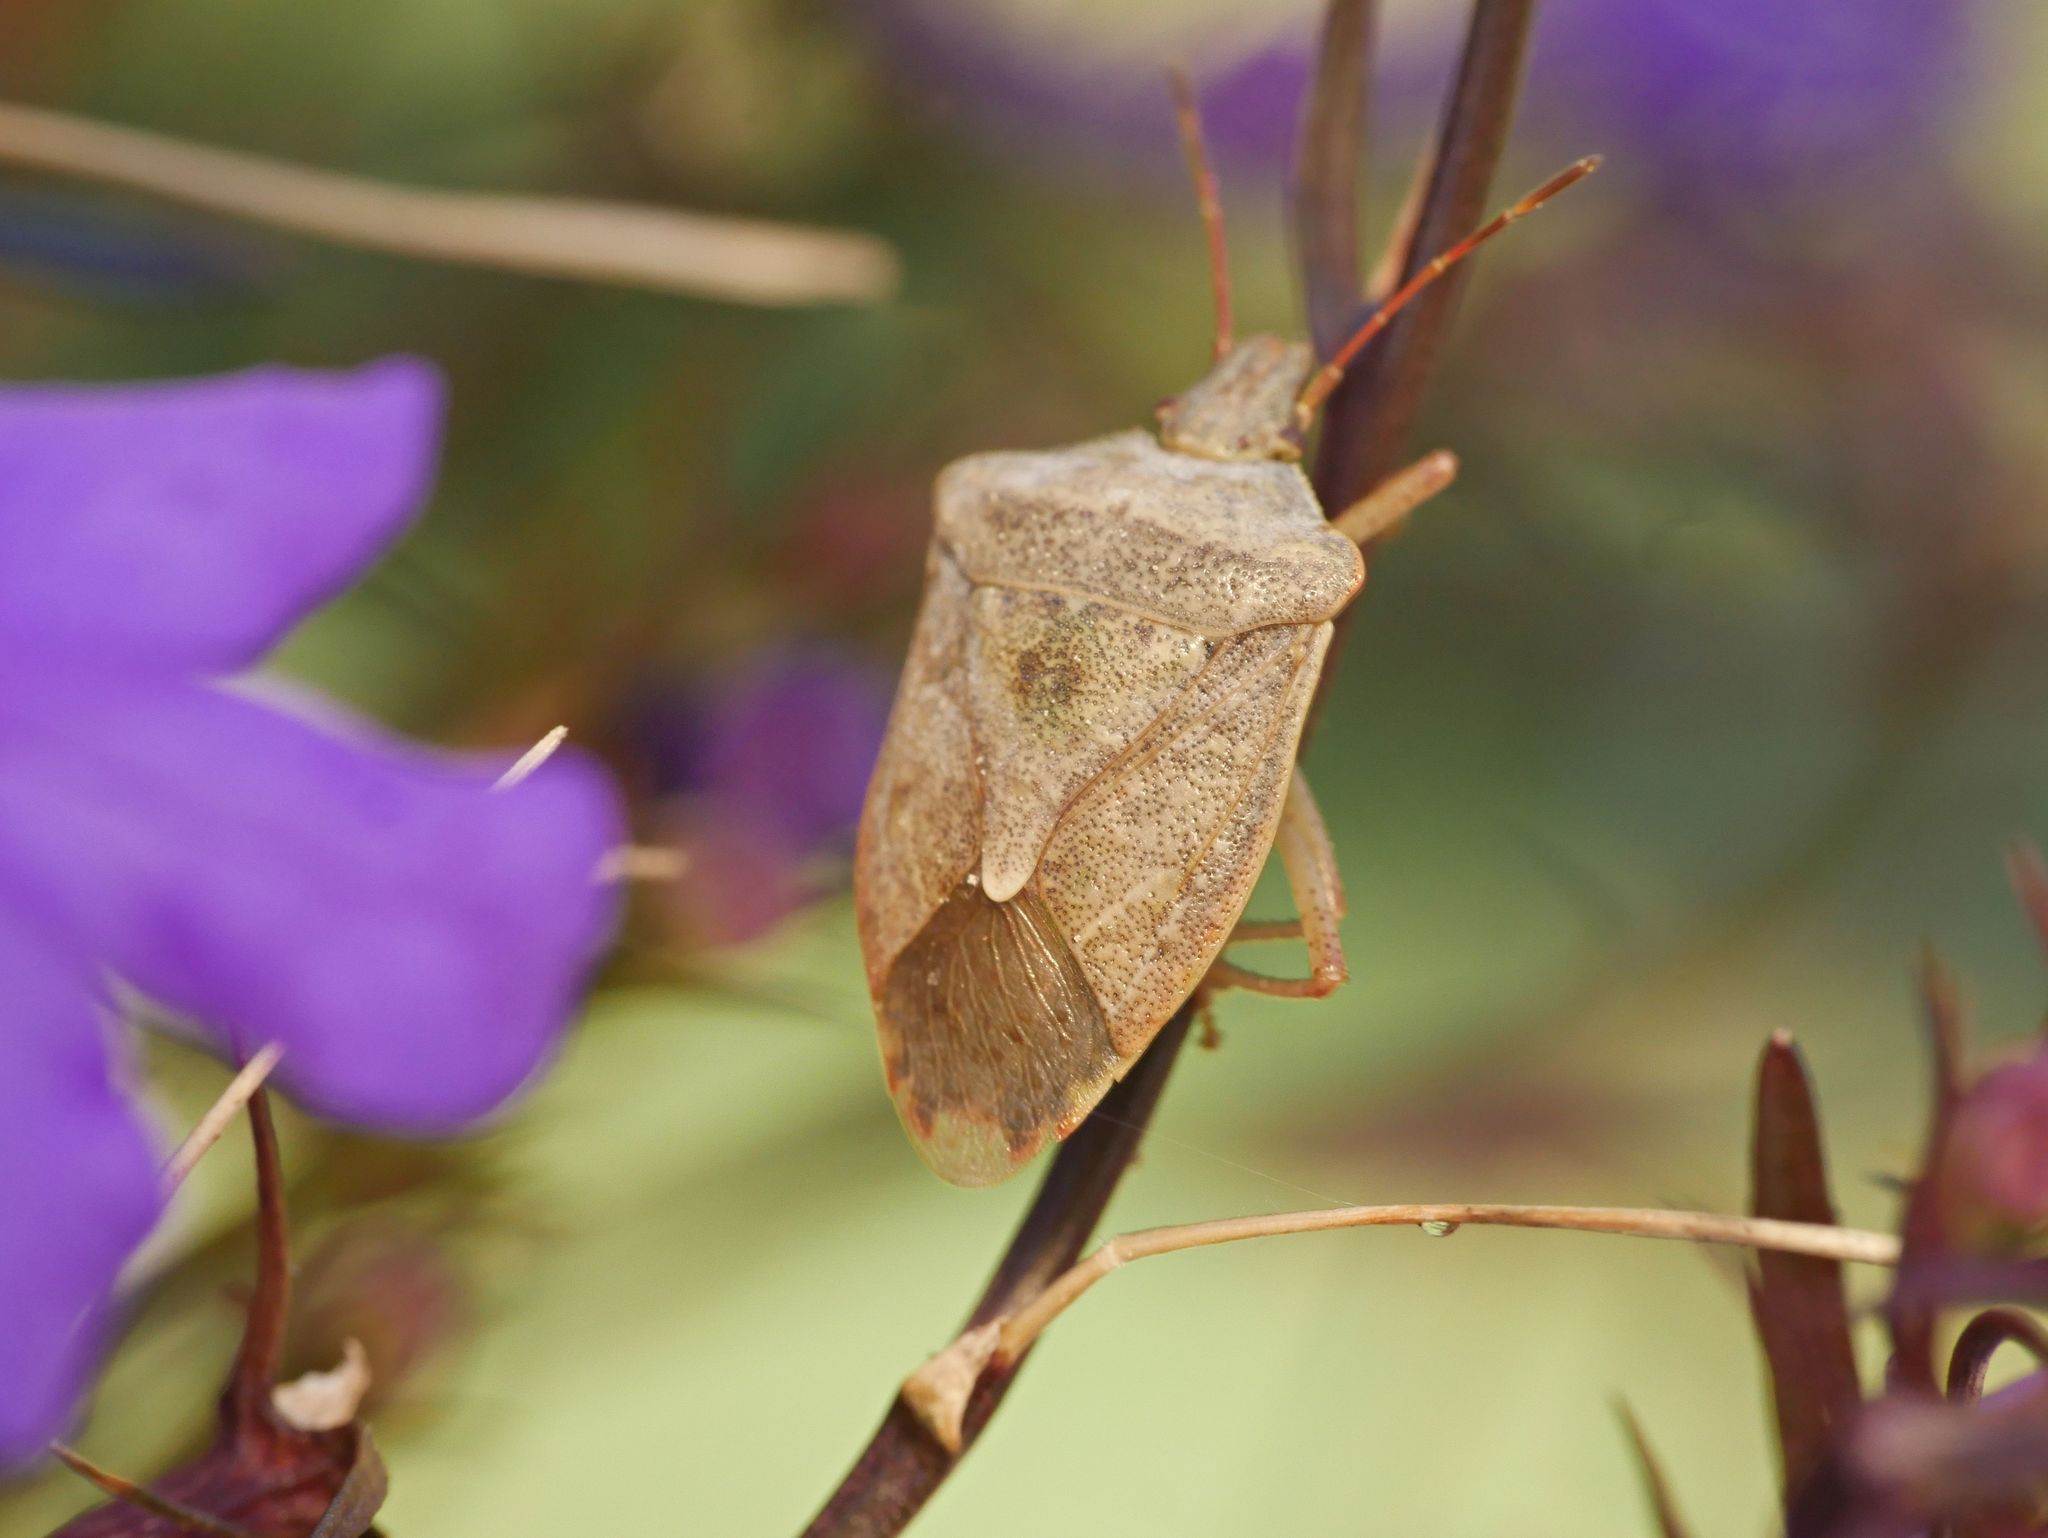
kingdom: Animalia
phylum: Arthropoda
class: Insecta
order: Hemiptera
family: Pentatomidae
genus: Euschistus
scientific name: Euschistus servus
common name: Brown stink bug
